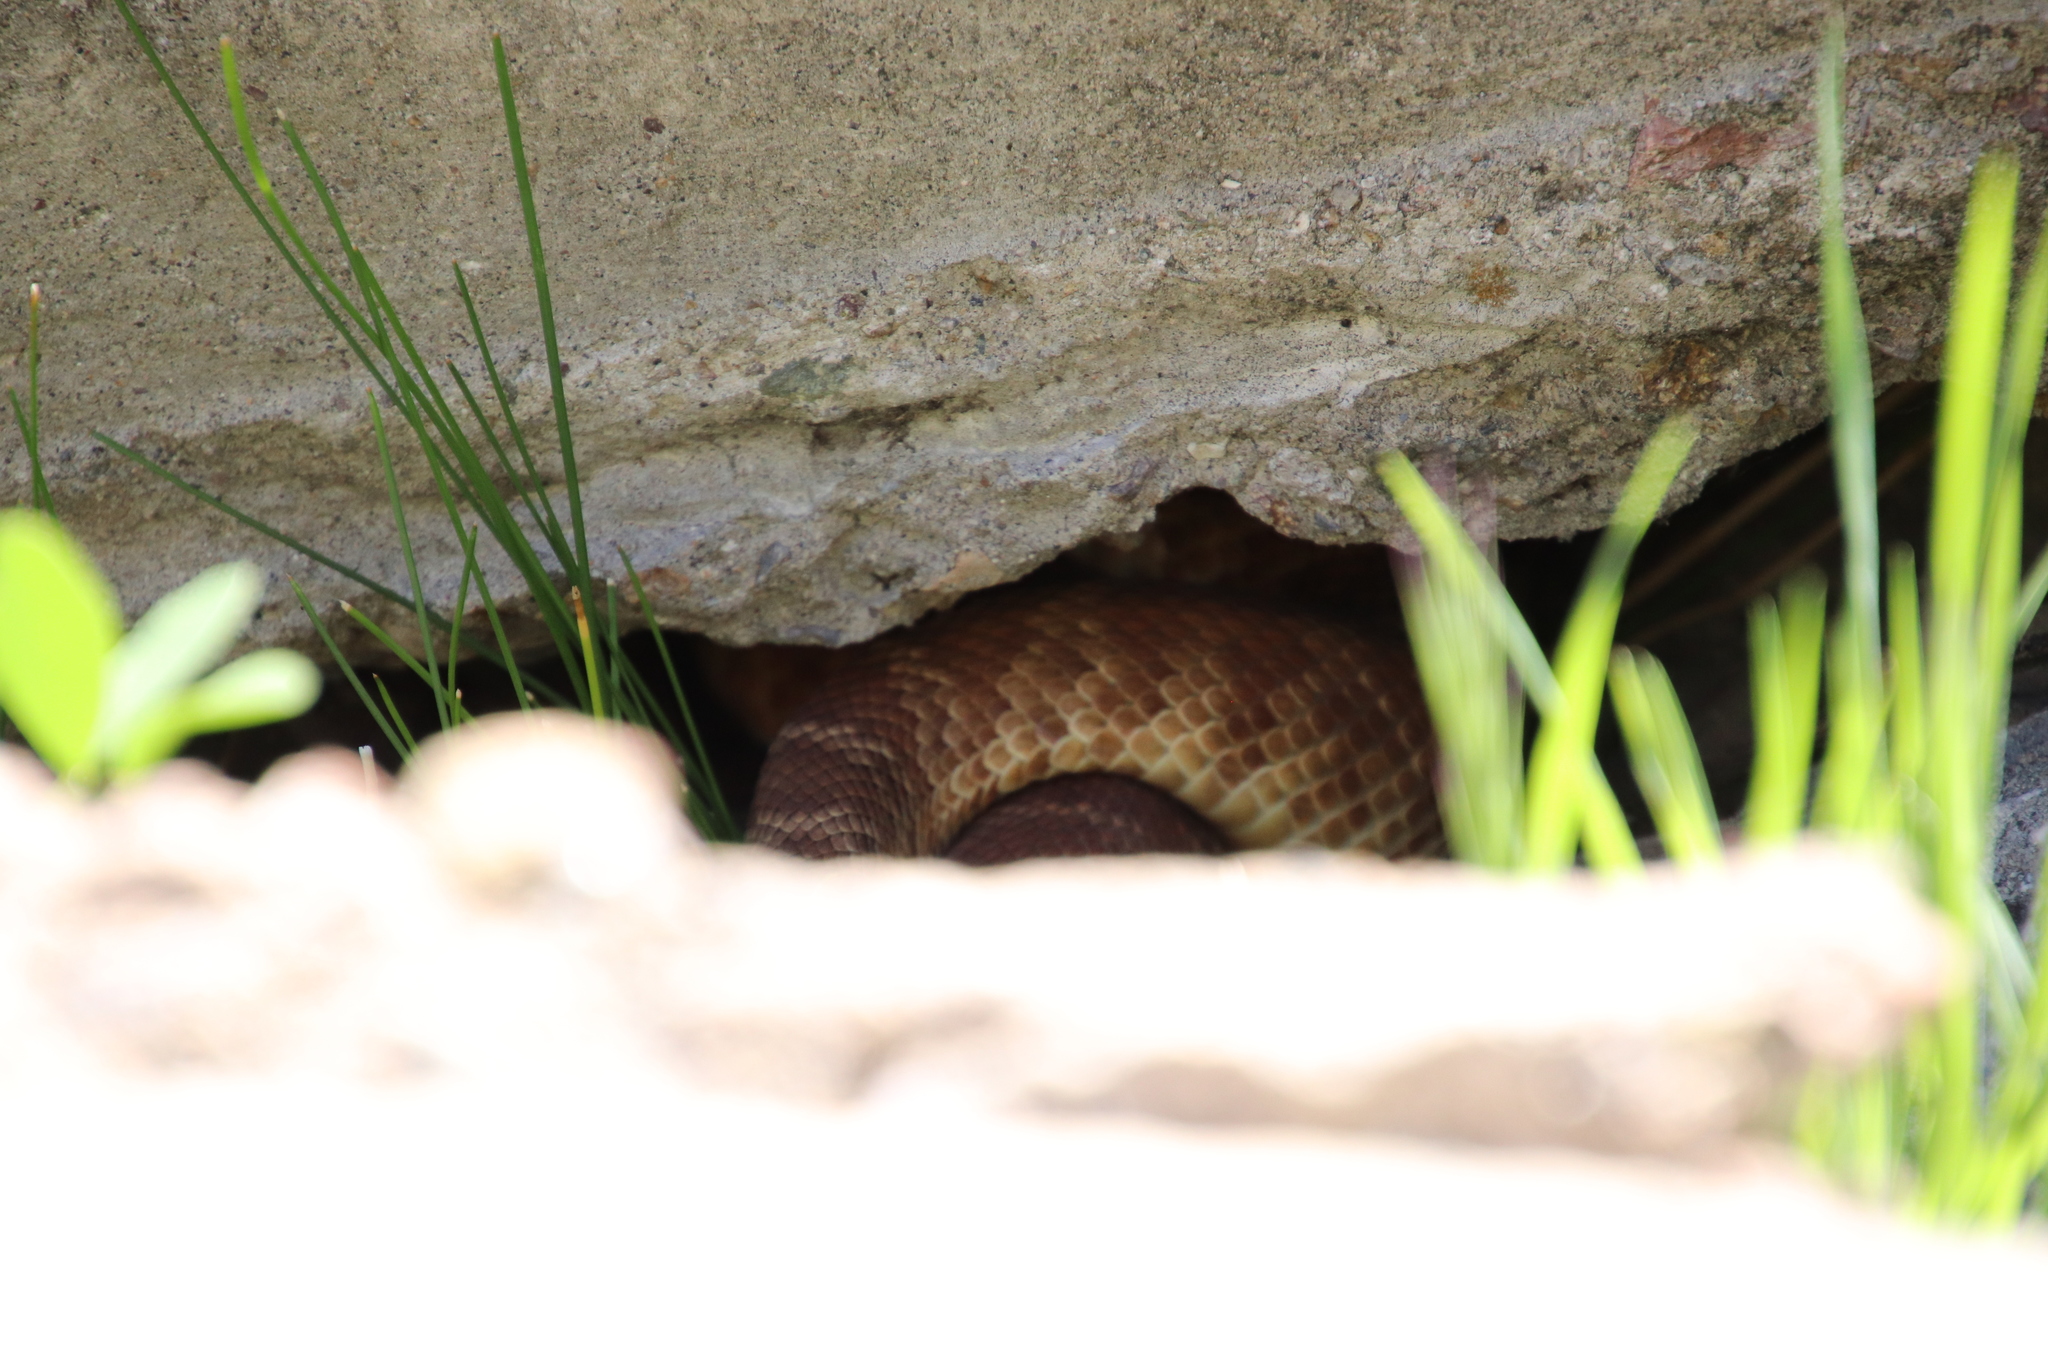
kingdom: Animalia
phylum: Chordata
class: Squamata
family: Viperidae
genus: Crotalus
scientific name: Crotalus ruber
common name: Red diamond rattlesnake
